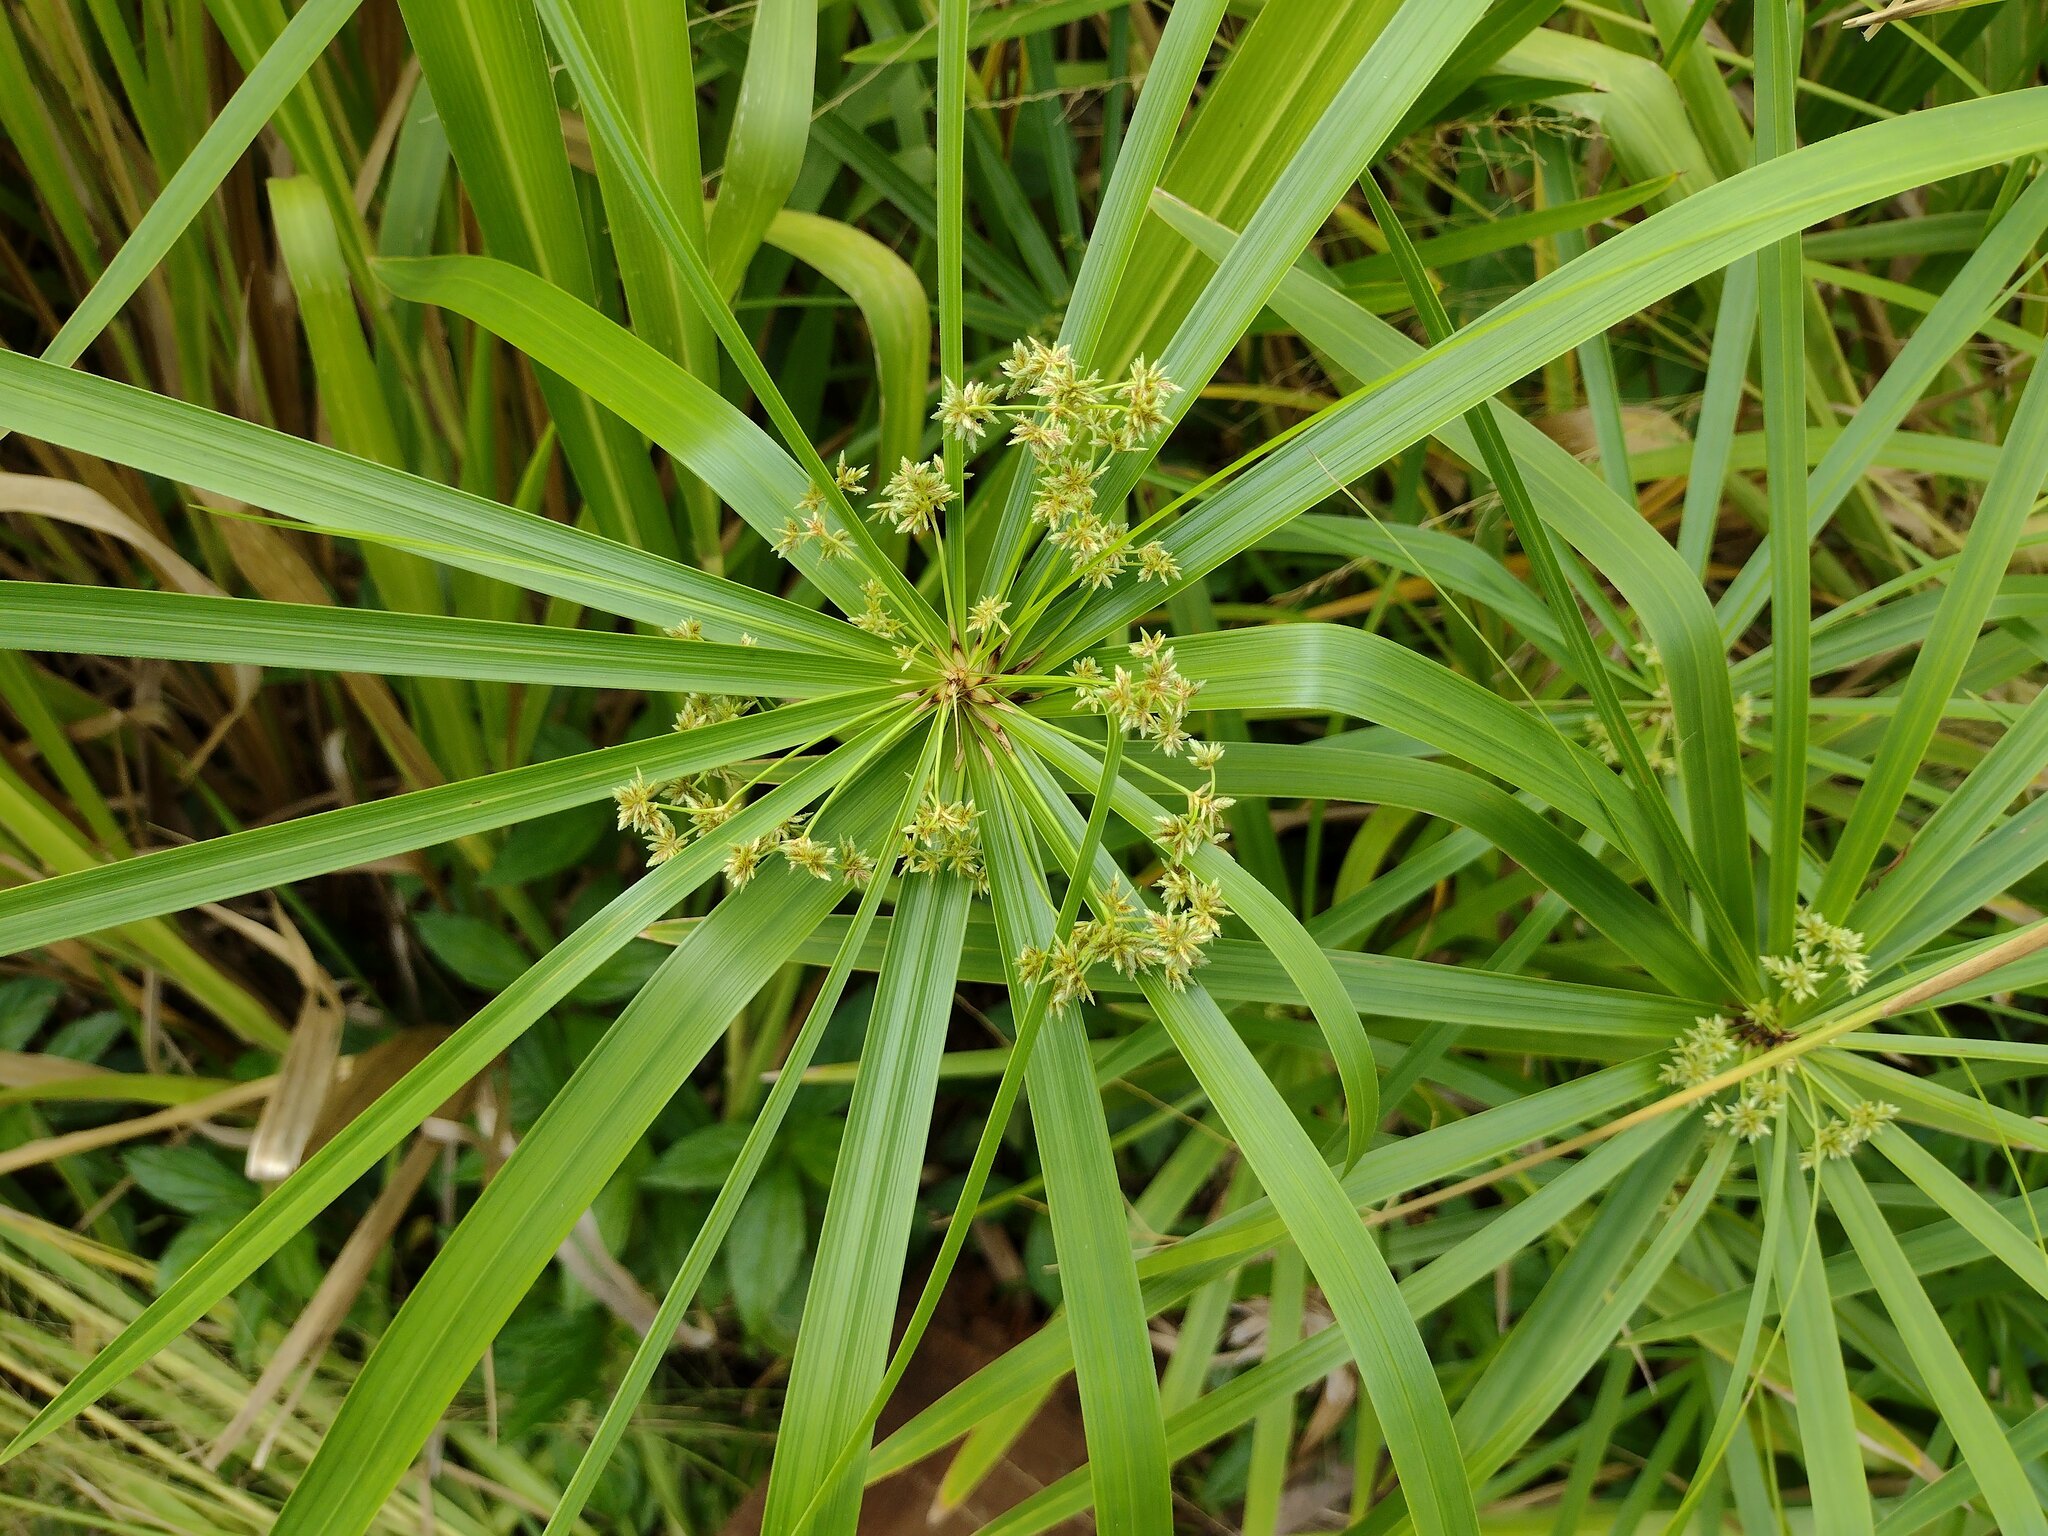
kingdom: Plantae
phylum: Tracheophyta
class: Liliopsida
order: Poales
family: Cyperaceae
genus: Cyperus
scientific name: Cyperus alternifolius
